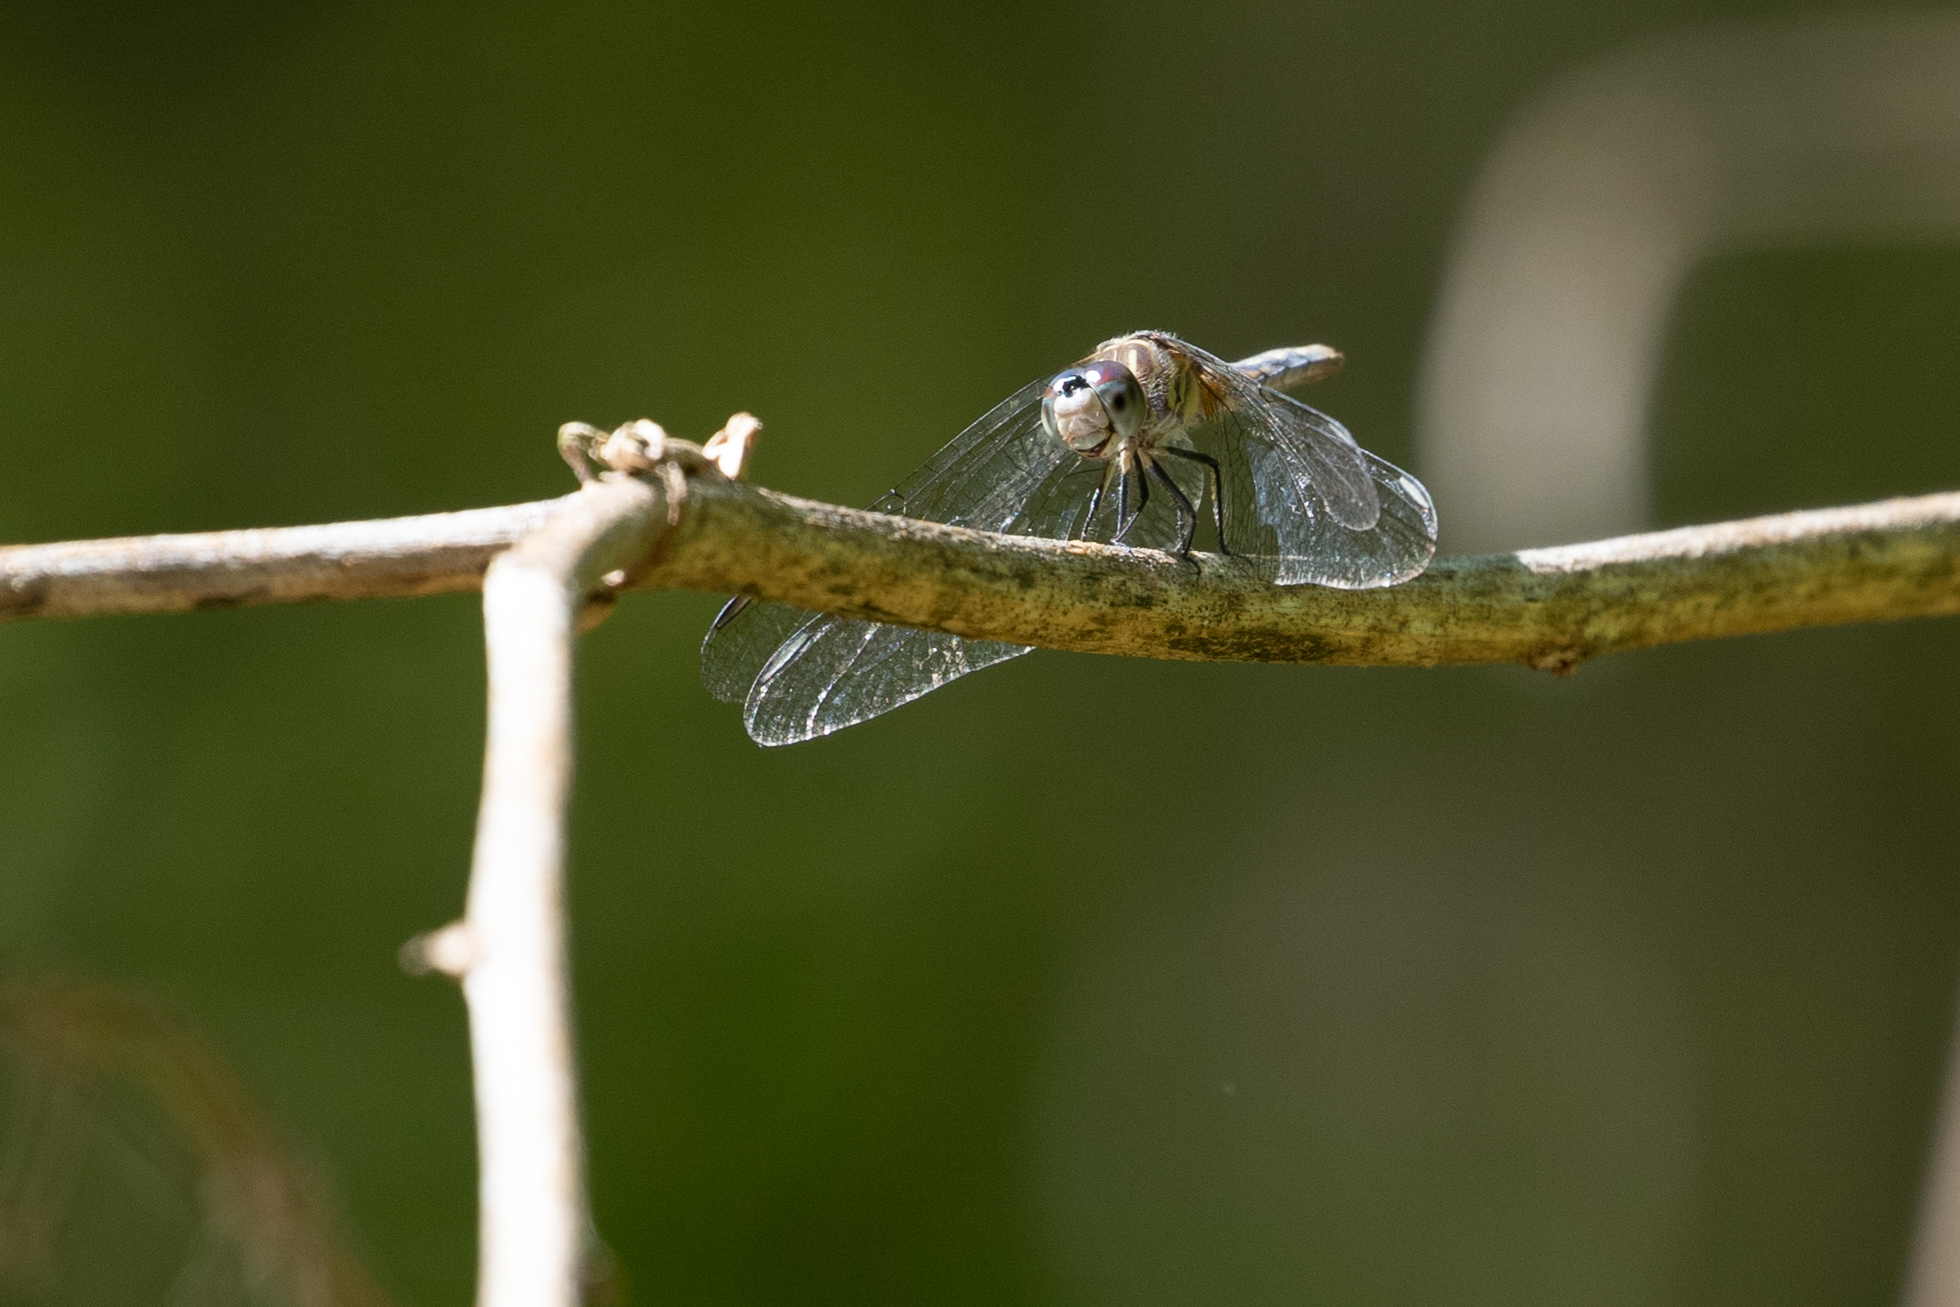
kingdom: Animalia
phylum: Arthropoda
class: Insecta
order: Odonata
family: Libellulidae
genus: Pachydiplax
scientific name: Pachydiplax longipennis
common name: Blue dasher
